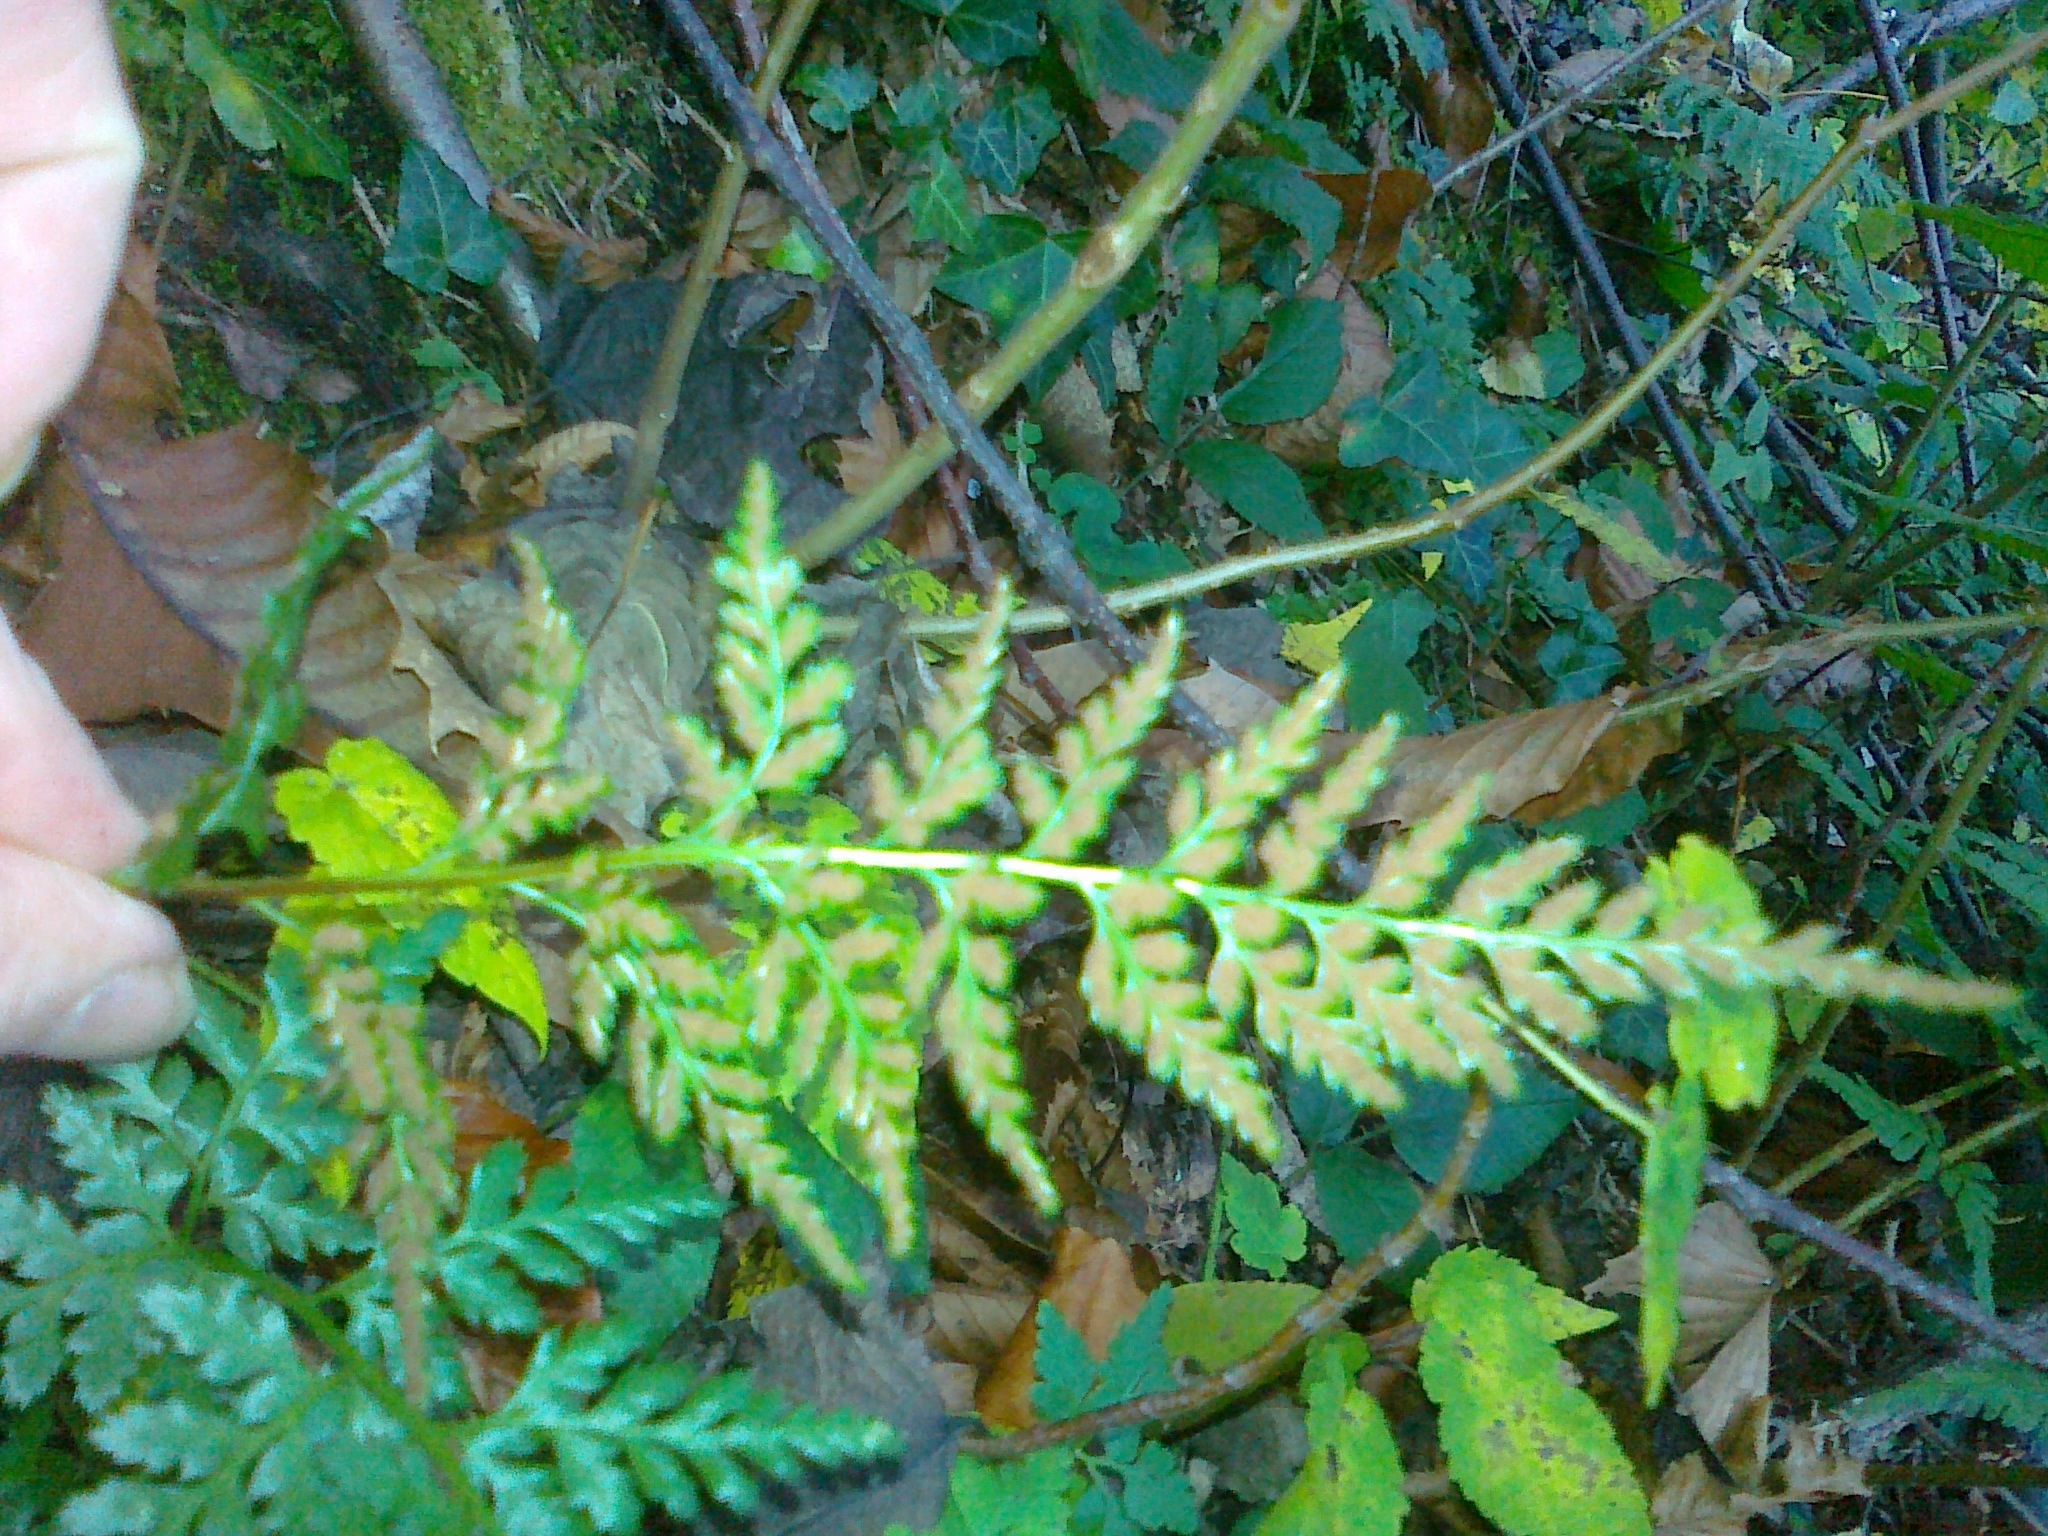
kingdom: Plantae
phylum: Tracheophyta
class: Polypodiopsida
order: Polypodiales
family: Aspleniaceae
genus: Asplenium
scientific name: Asplenium adiantum-nigrum
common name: Black spleenwort
